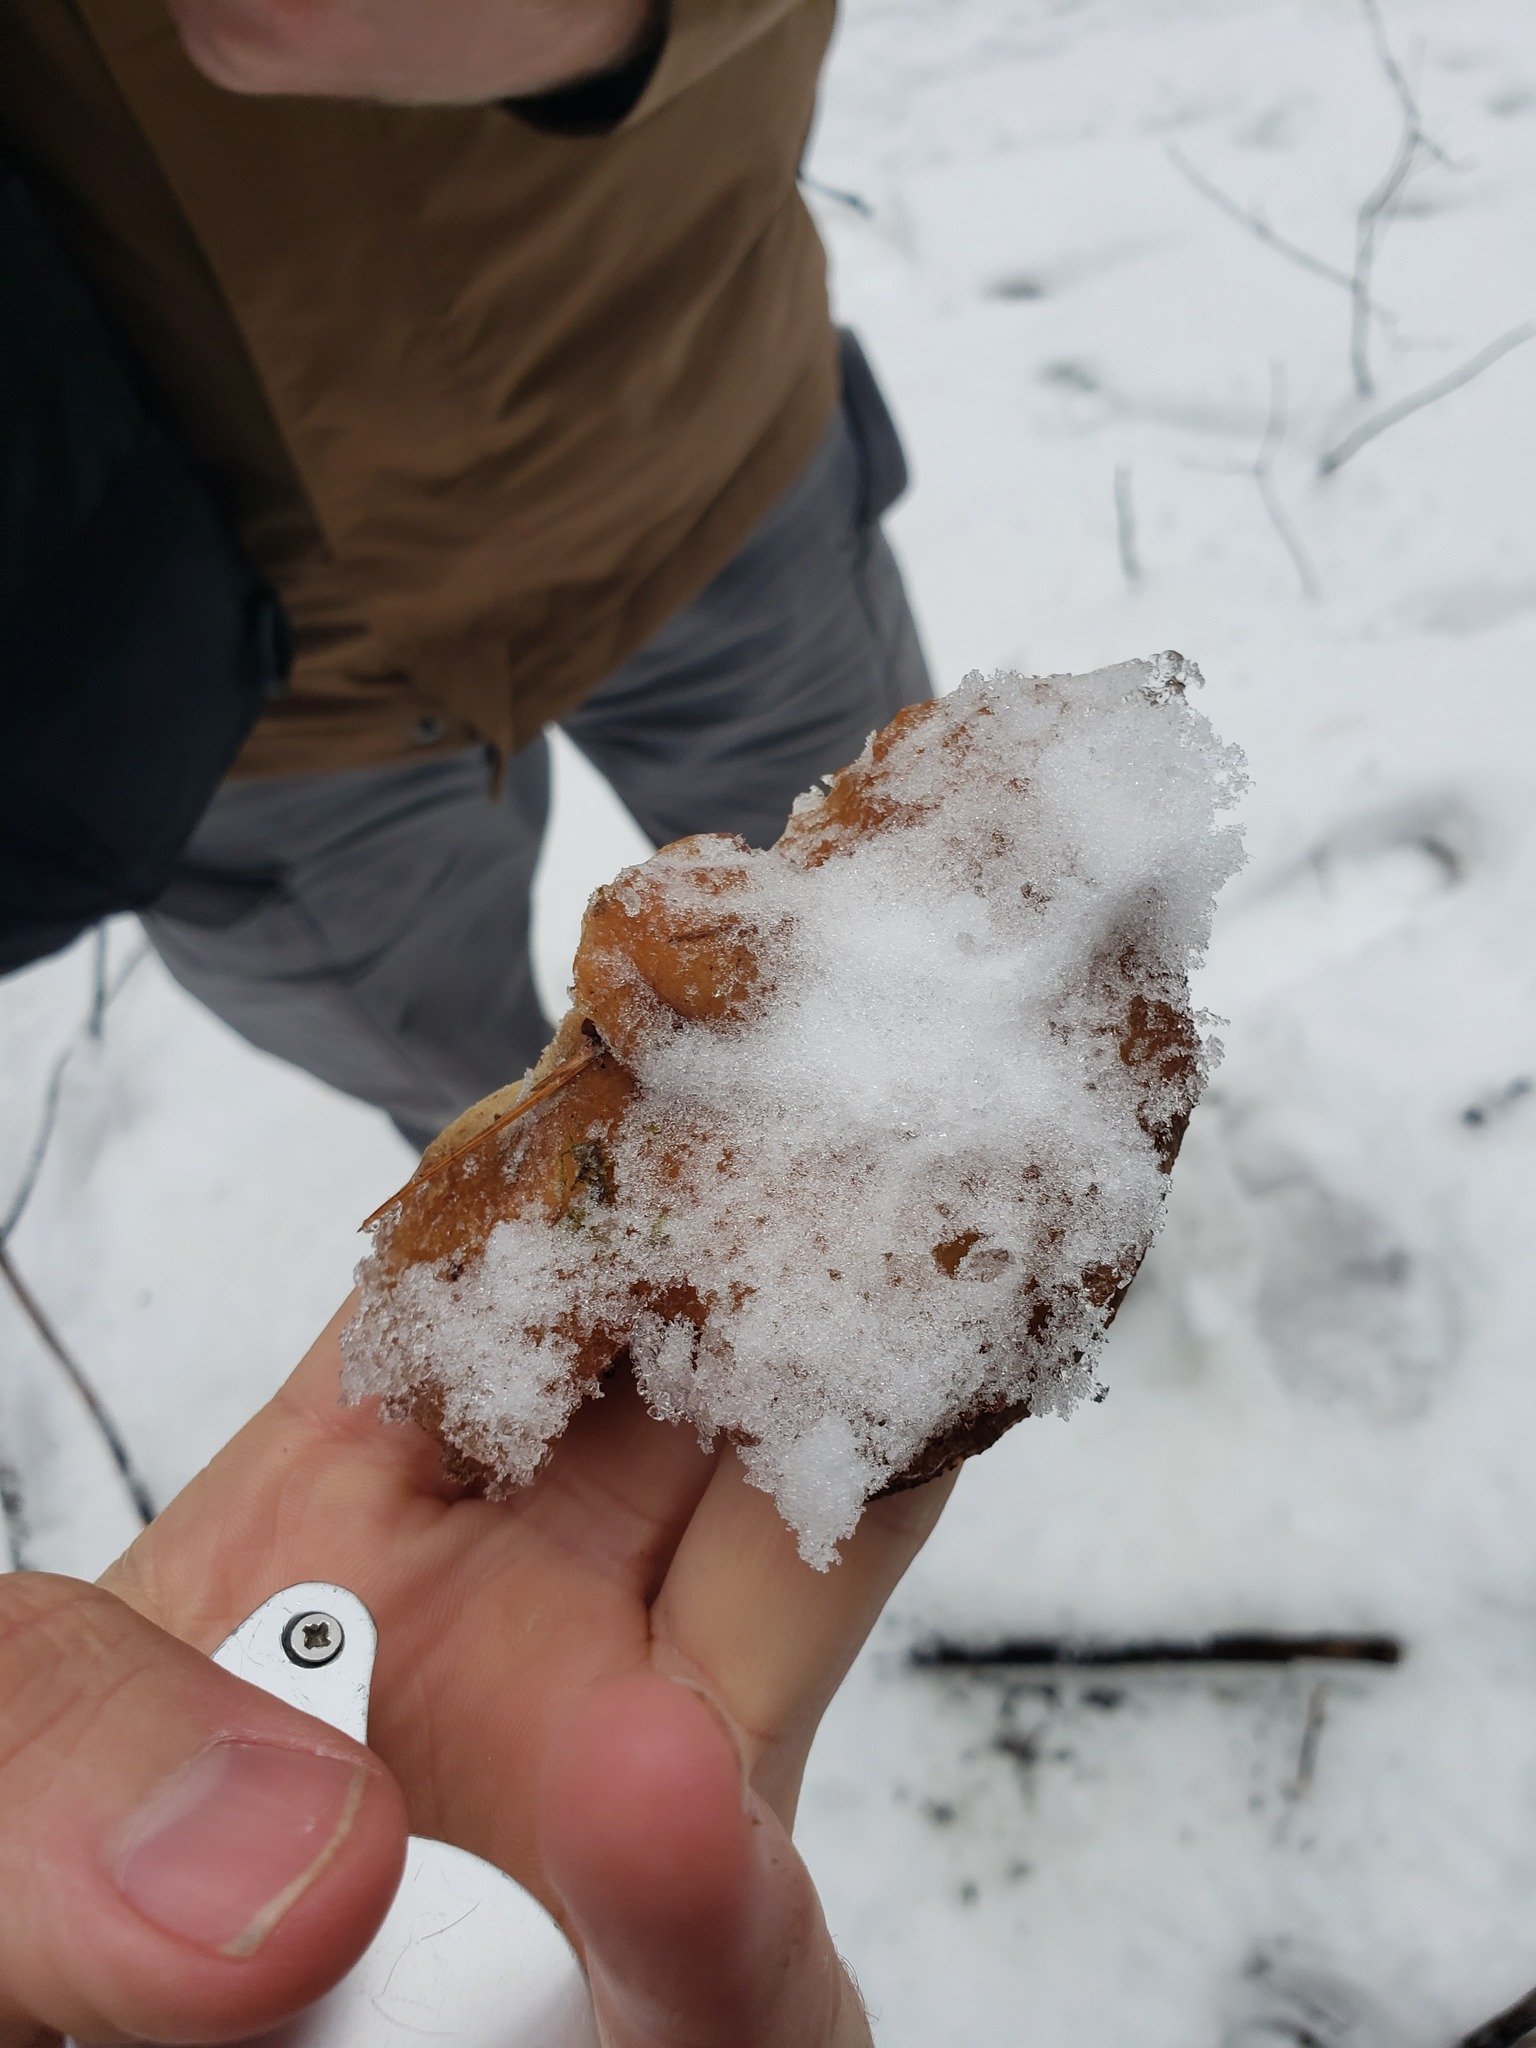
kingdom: Fungi
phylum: Basidiomycota
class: Agaricomycetes
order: Agaricales
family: Sarcomyxaceae
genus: Sarcomyxa
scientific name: Sarcomyxa serotina
